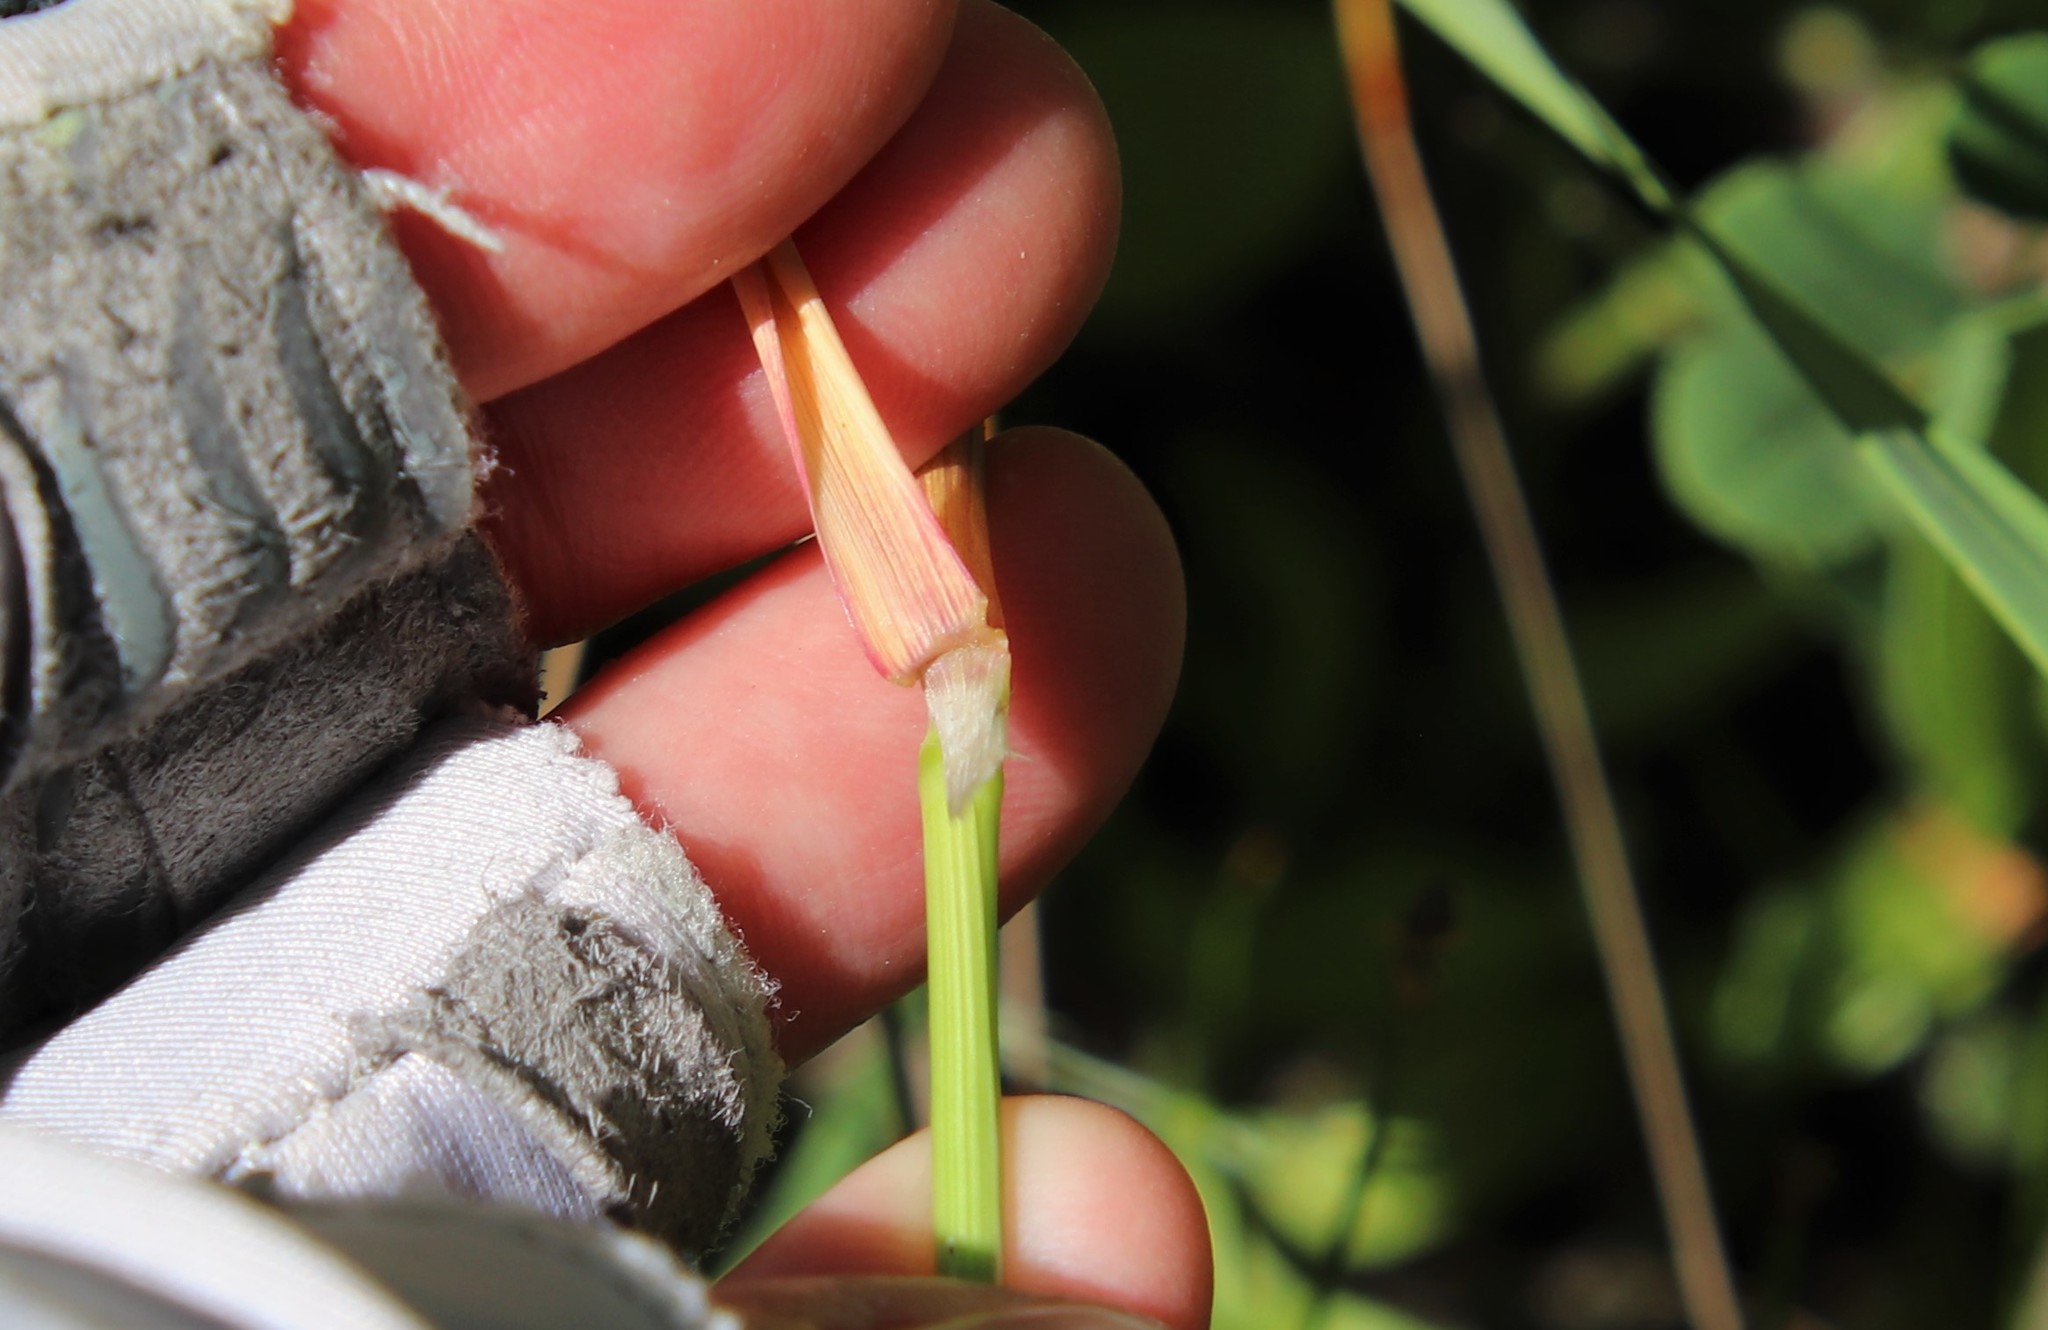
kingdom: Plantae
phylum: Tracheophyta
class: Liliopsida
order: Poales
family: Poaceae
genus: Polypogon
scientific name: Polypogon monspeliensis
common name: Annual rabbitsfoot grass
